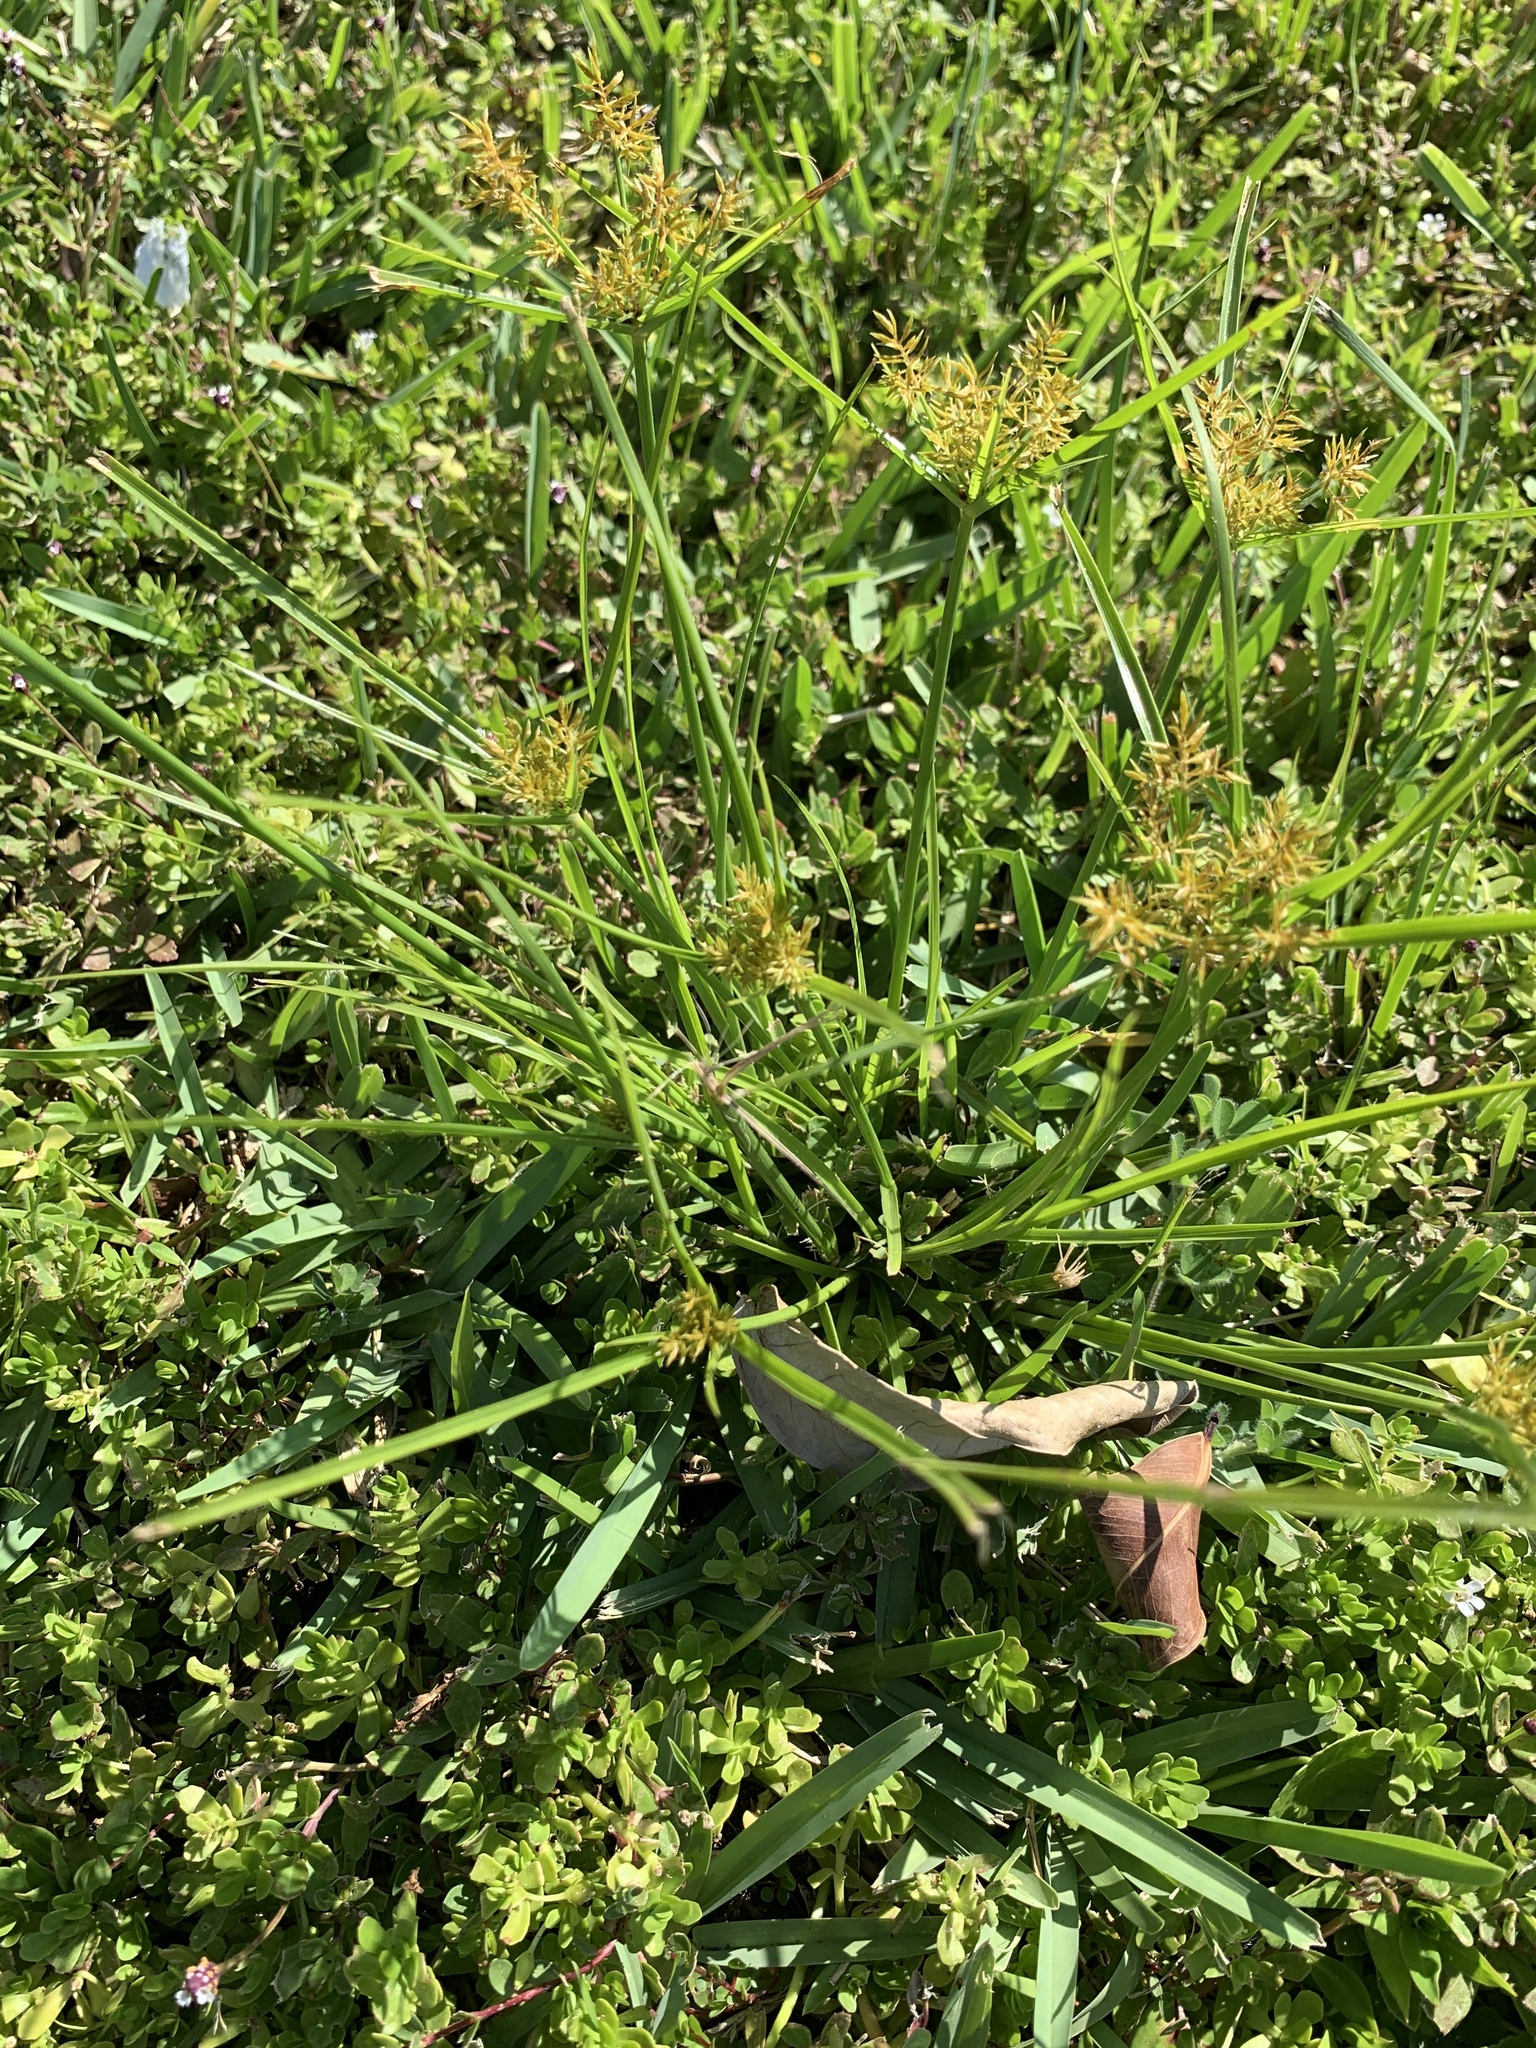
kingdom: Plantae
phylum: Tracheophyta
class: Liliopsida
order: Poales
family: Cyperaceae
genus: Cyperus
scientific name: Cyperus polystachyos
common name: Bunchy flat sedge
